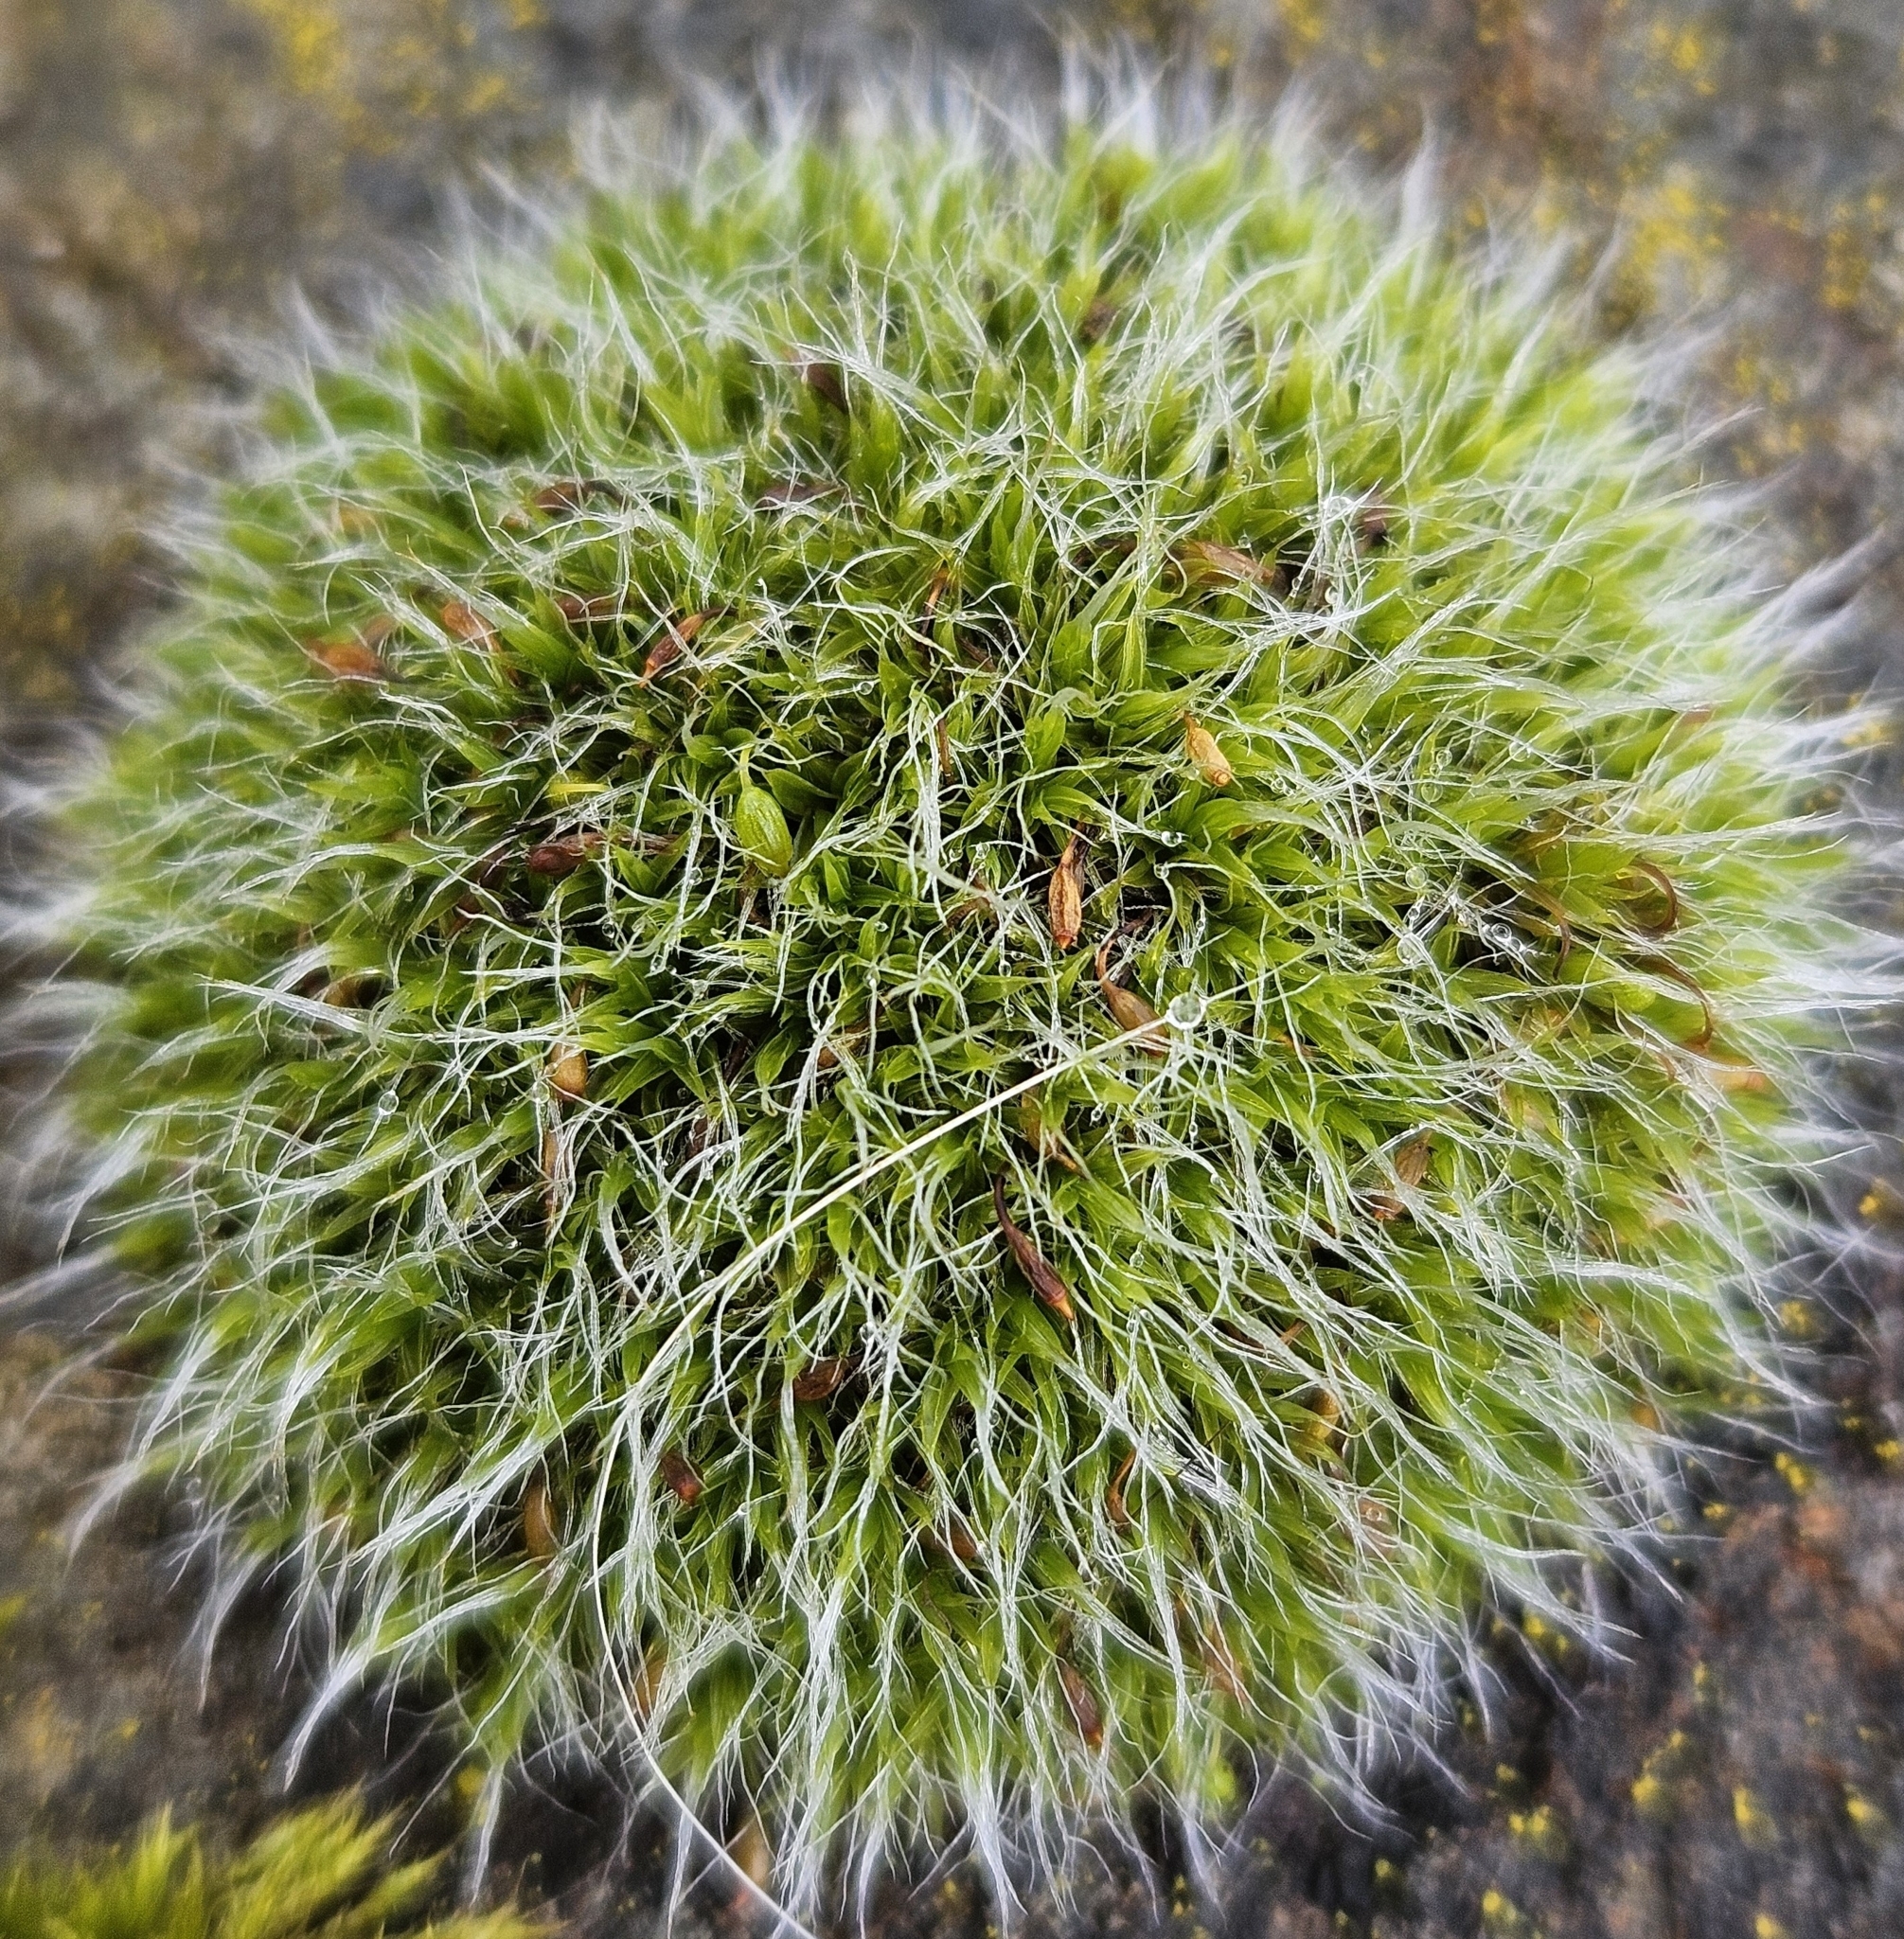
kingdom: Plantae
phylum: Bryophyta
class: Bryopsida
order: Grimmiales
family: Grimmiaceae
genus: Grimmia
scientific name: Grimmia pulvinata
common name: Grey-cushioned grimmia
